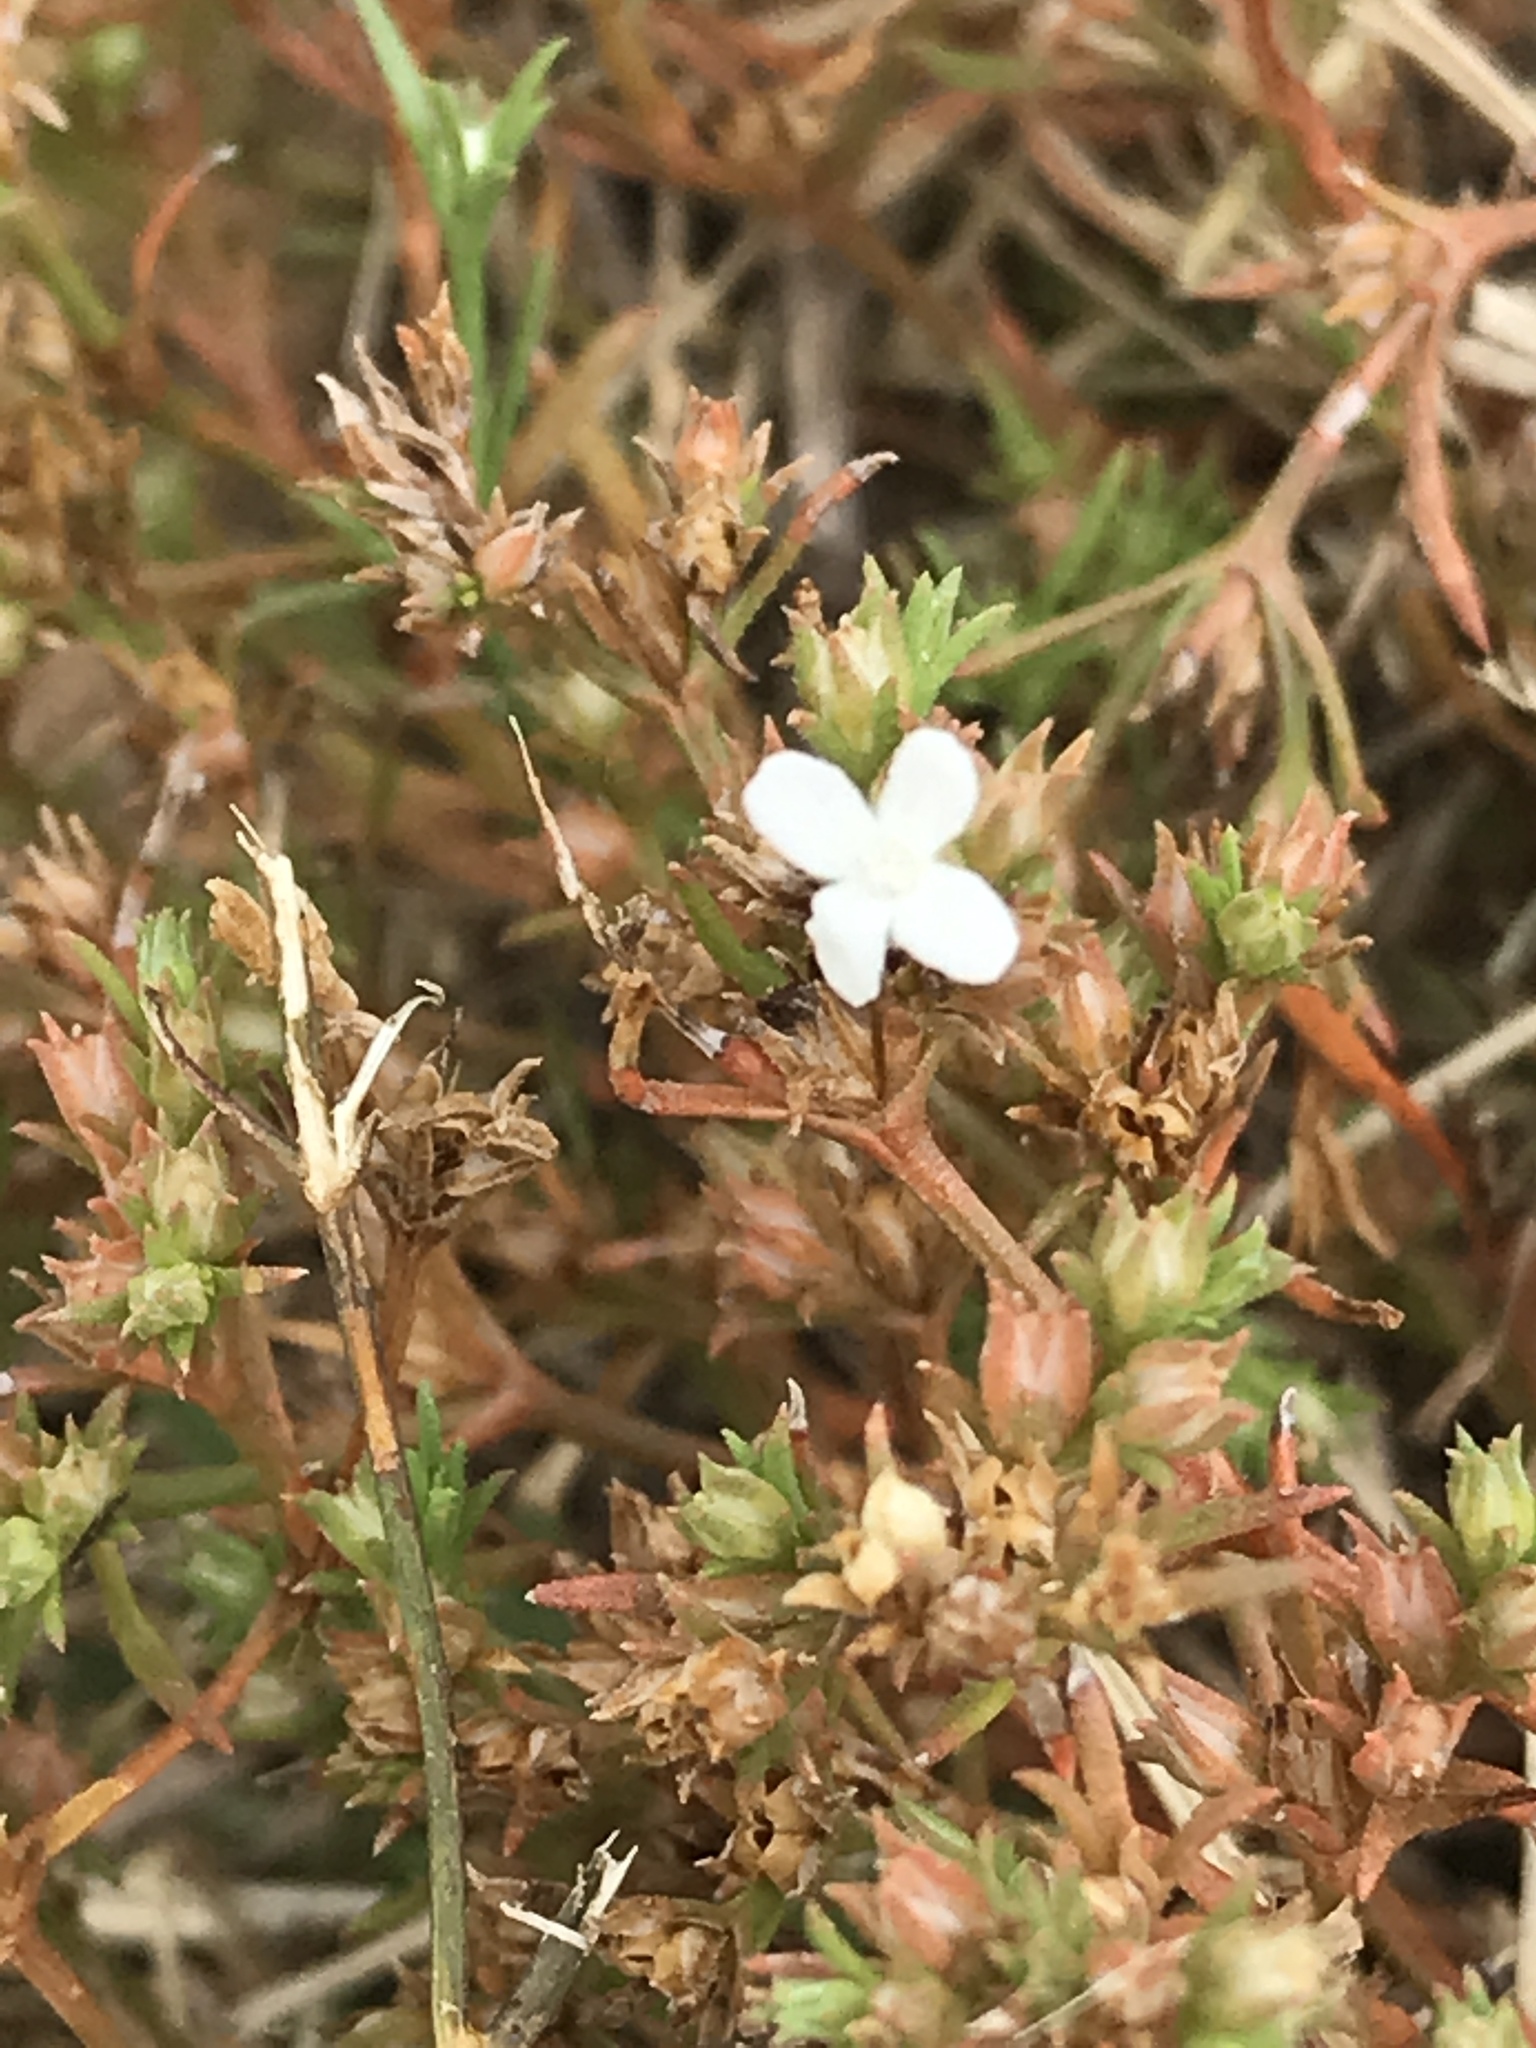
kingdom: Plantae
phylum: Tracheophyta
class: Magnoliopsida
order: Lamiales
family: Tetrachondraceae
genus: Polypremum
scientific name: Polypremum procumbens
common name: Juniper-leaf
